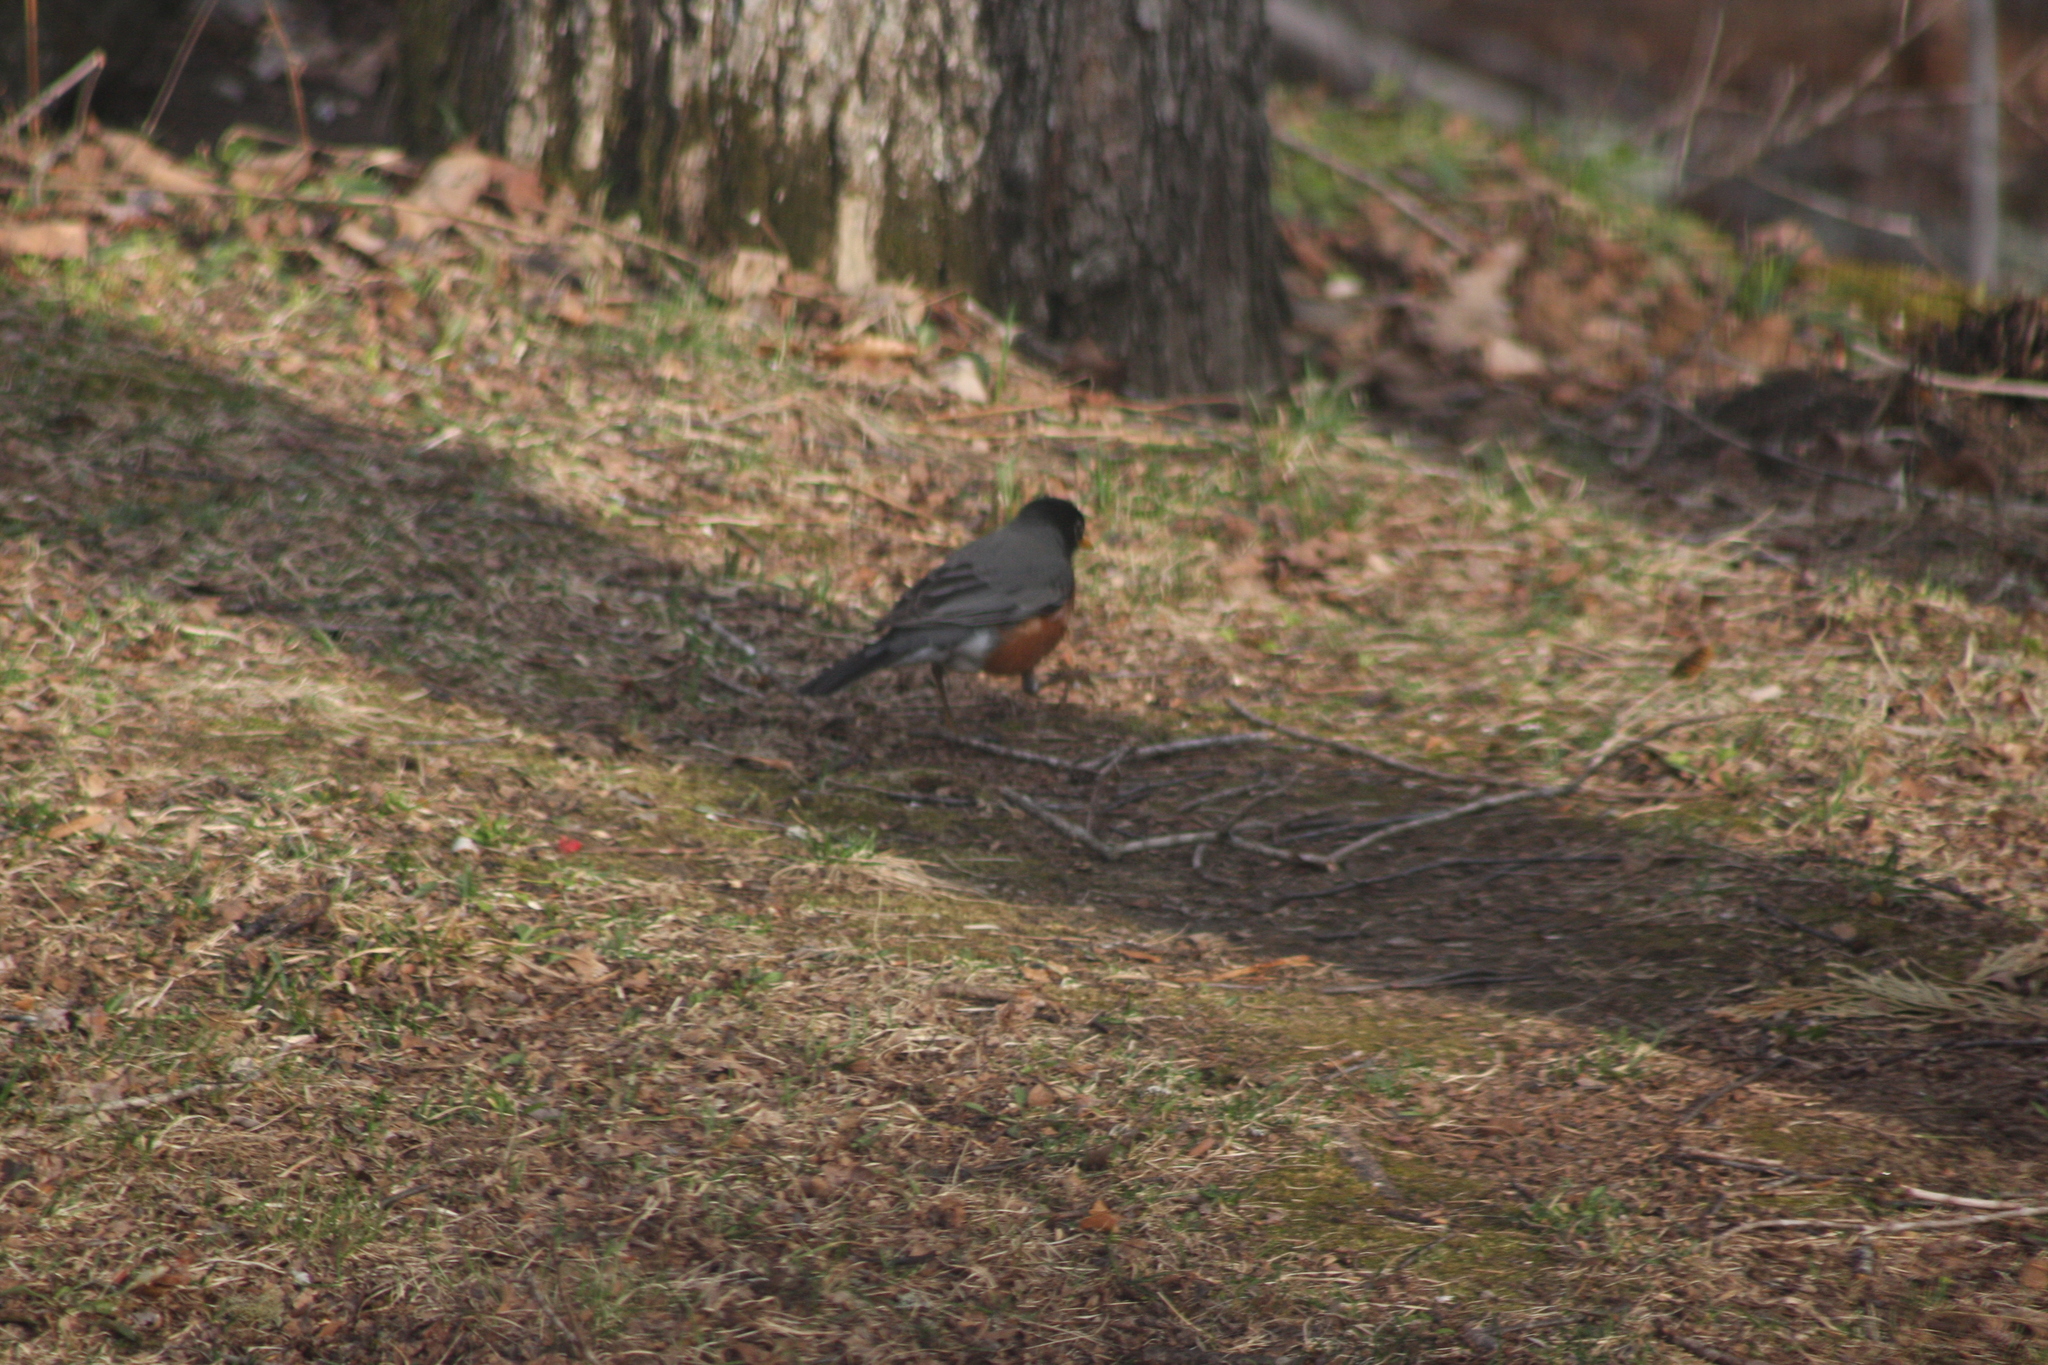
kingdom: Animalia
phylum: Chordata
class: Aves
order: Passeriformes
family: Turdidae
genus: Turdus
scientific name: Turdus migratorius
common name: American robin
